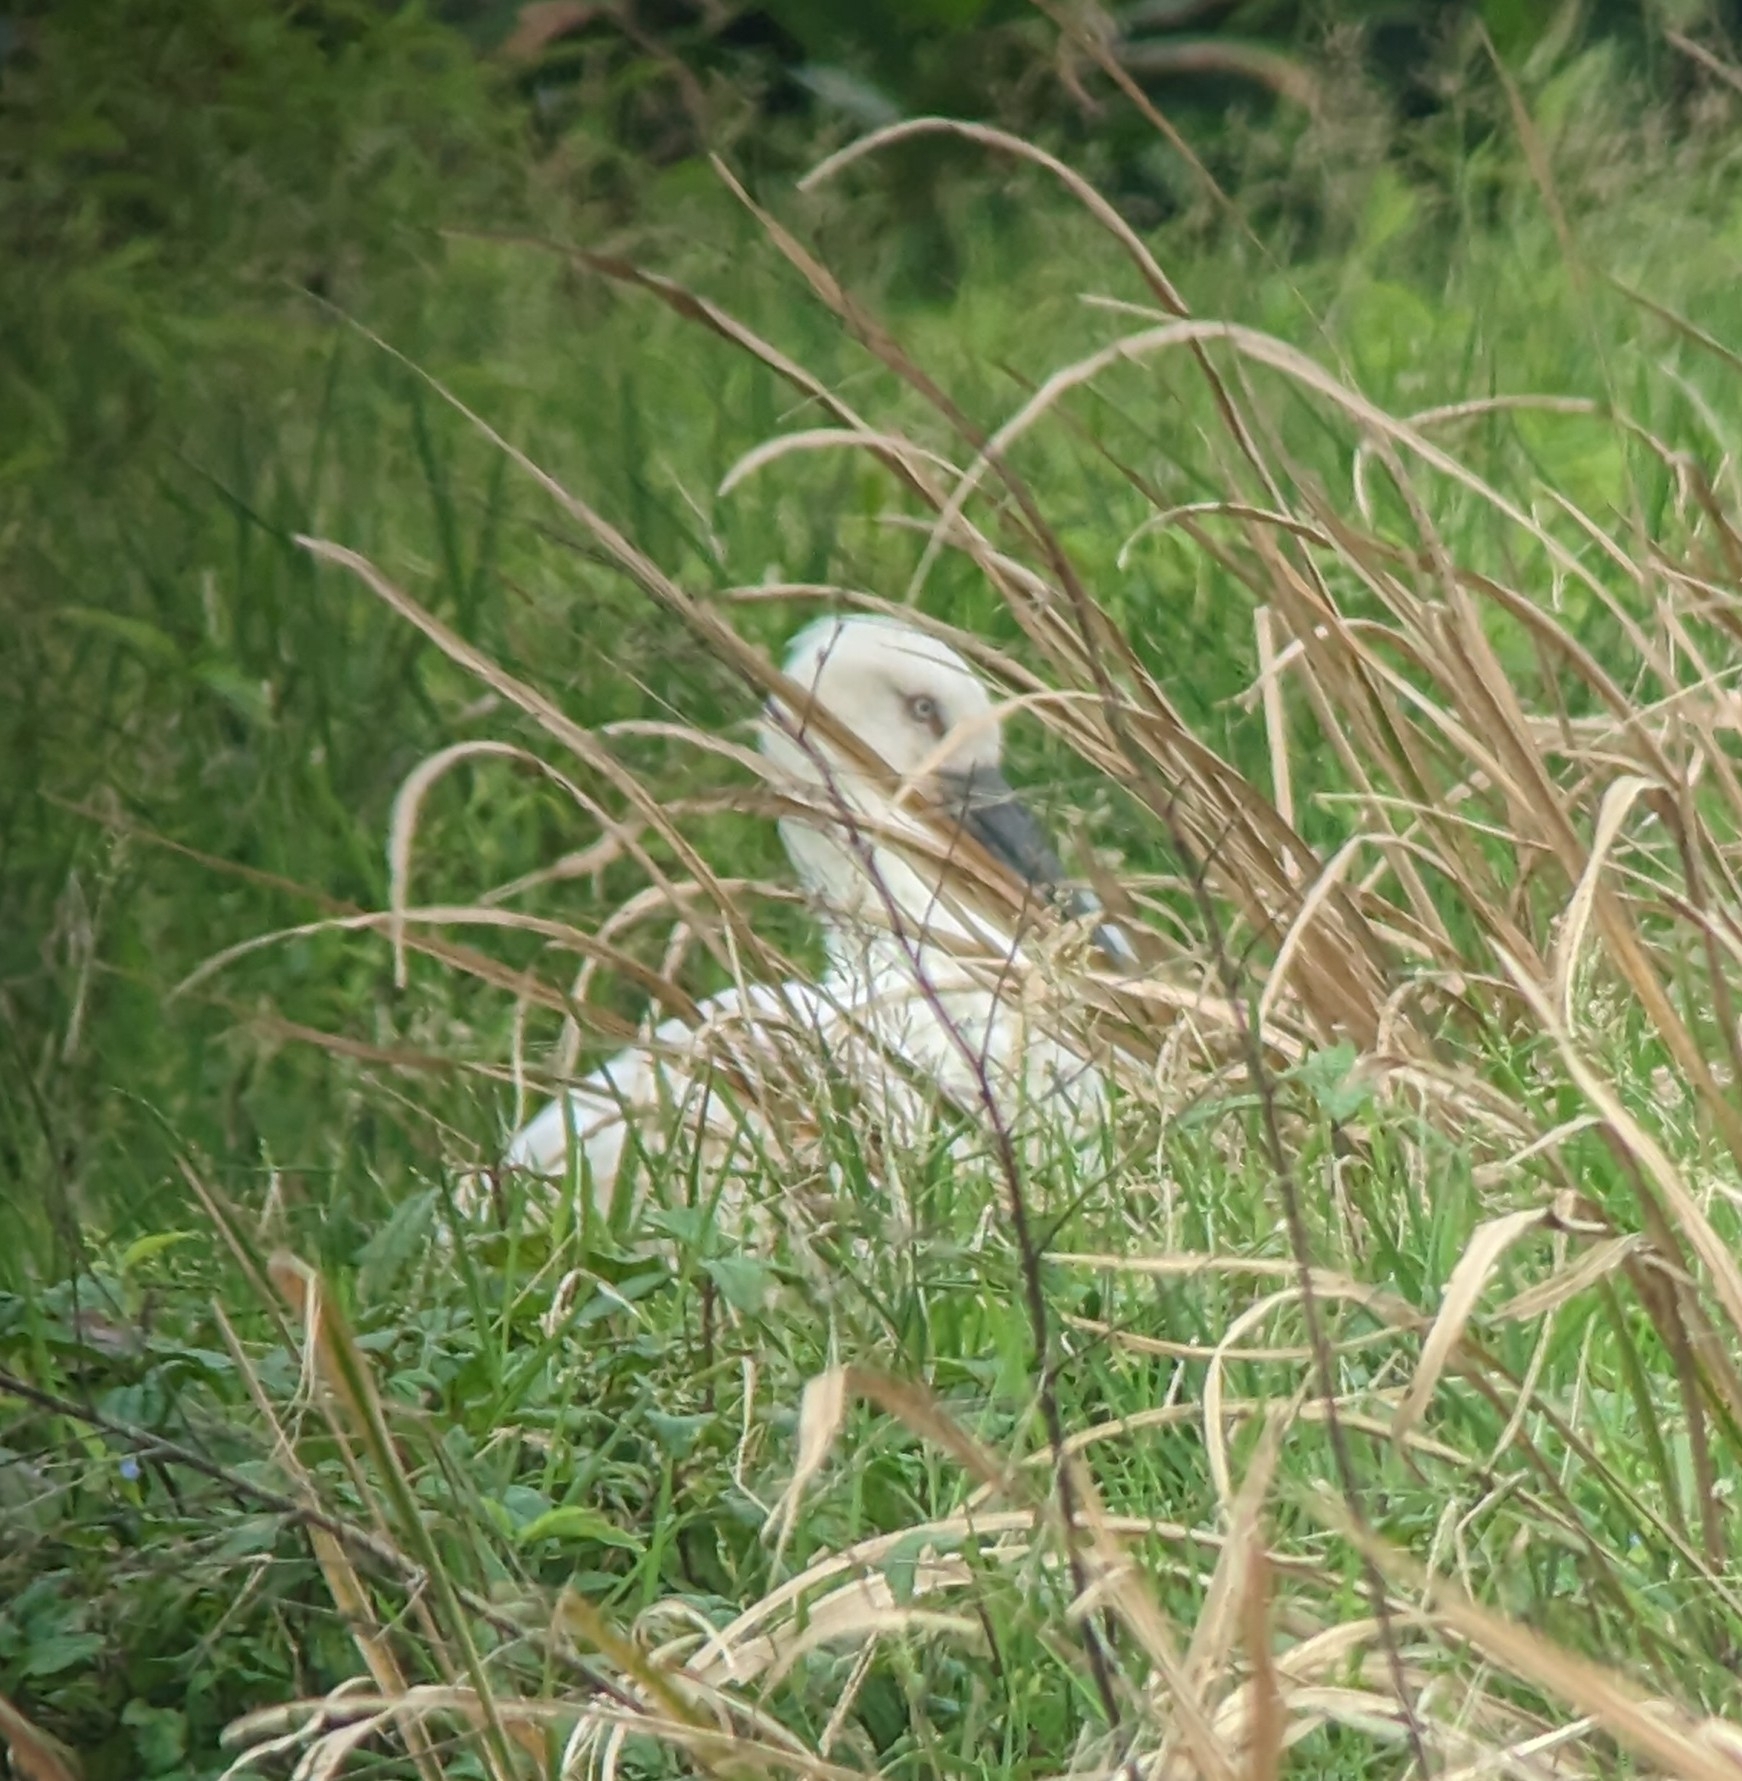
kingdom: Animalia
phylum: Chordata
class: Aves
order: Ciconiiformes
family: Ciconiidae
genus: Ciconia
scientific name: Ciconia boyciana
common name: Oriental stork
